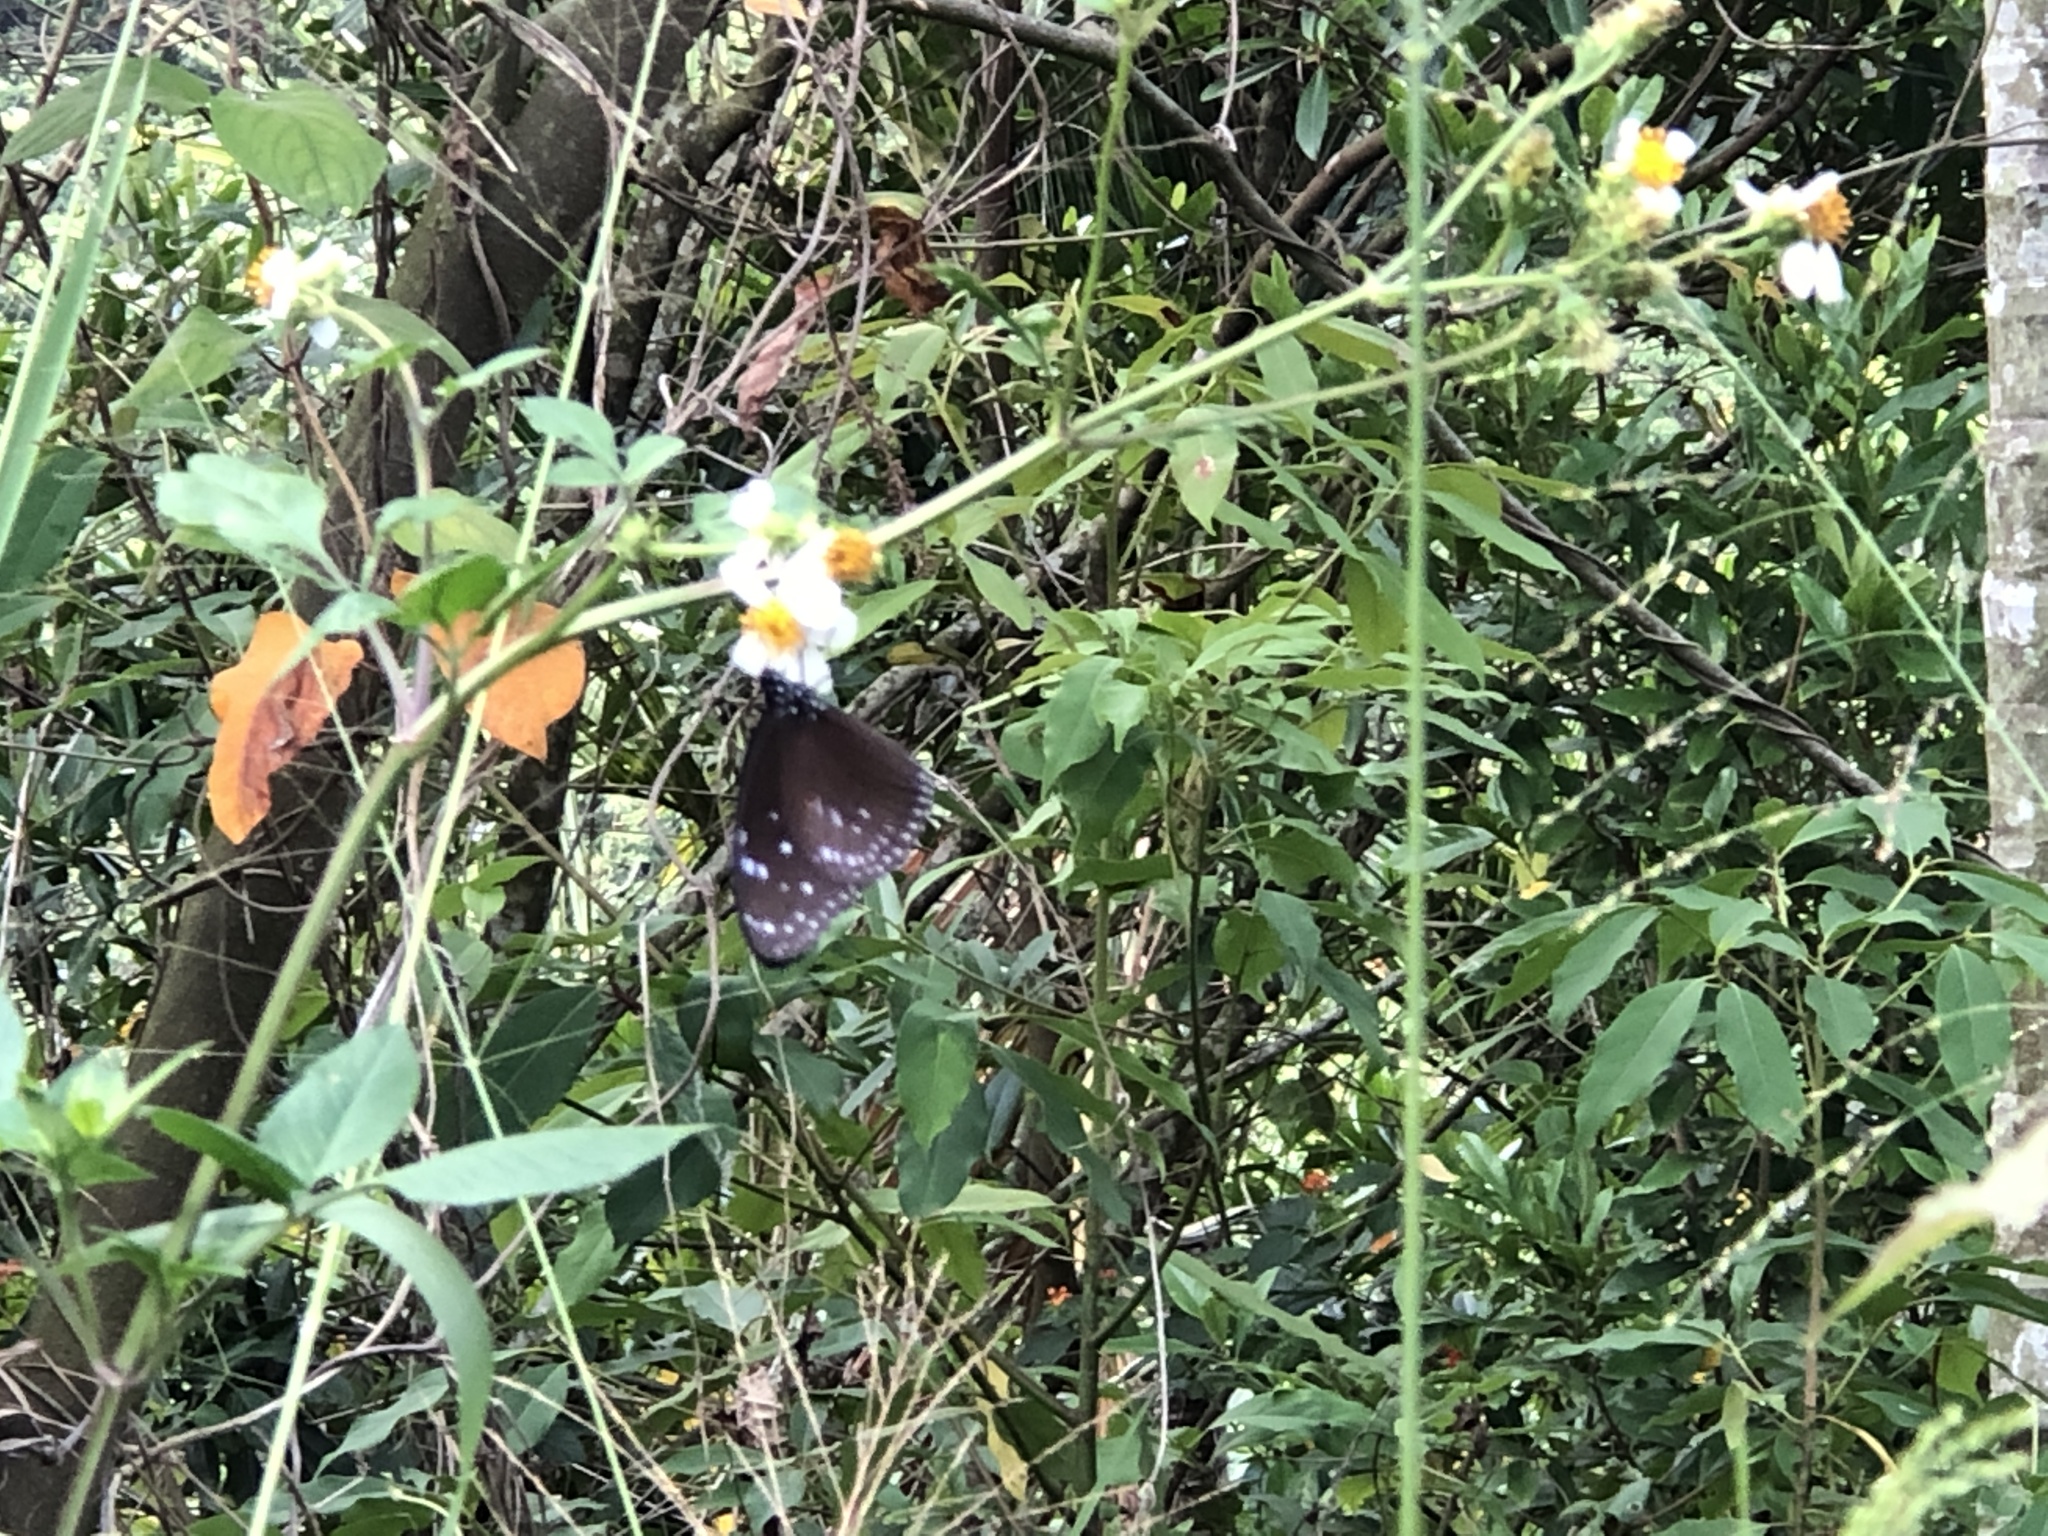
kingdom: Animalia
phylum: Arthropoda
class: Insecta
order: Lepidoptera
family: Nymphalidae
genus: Euploea
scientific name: Euploea mulciber
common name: Striped blue crow butterfly
